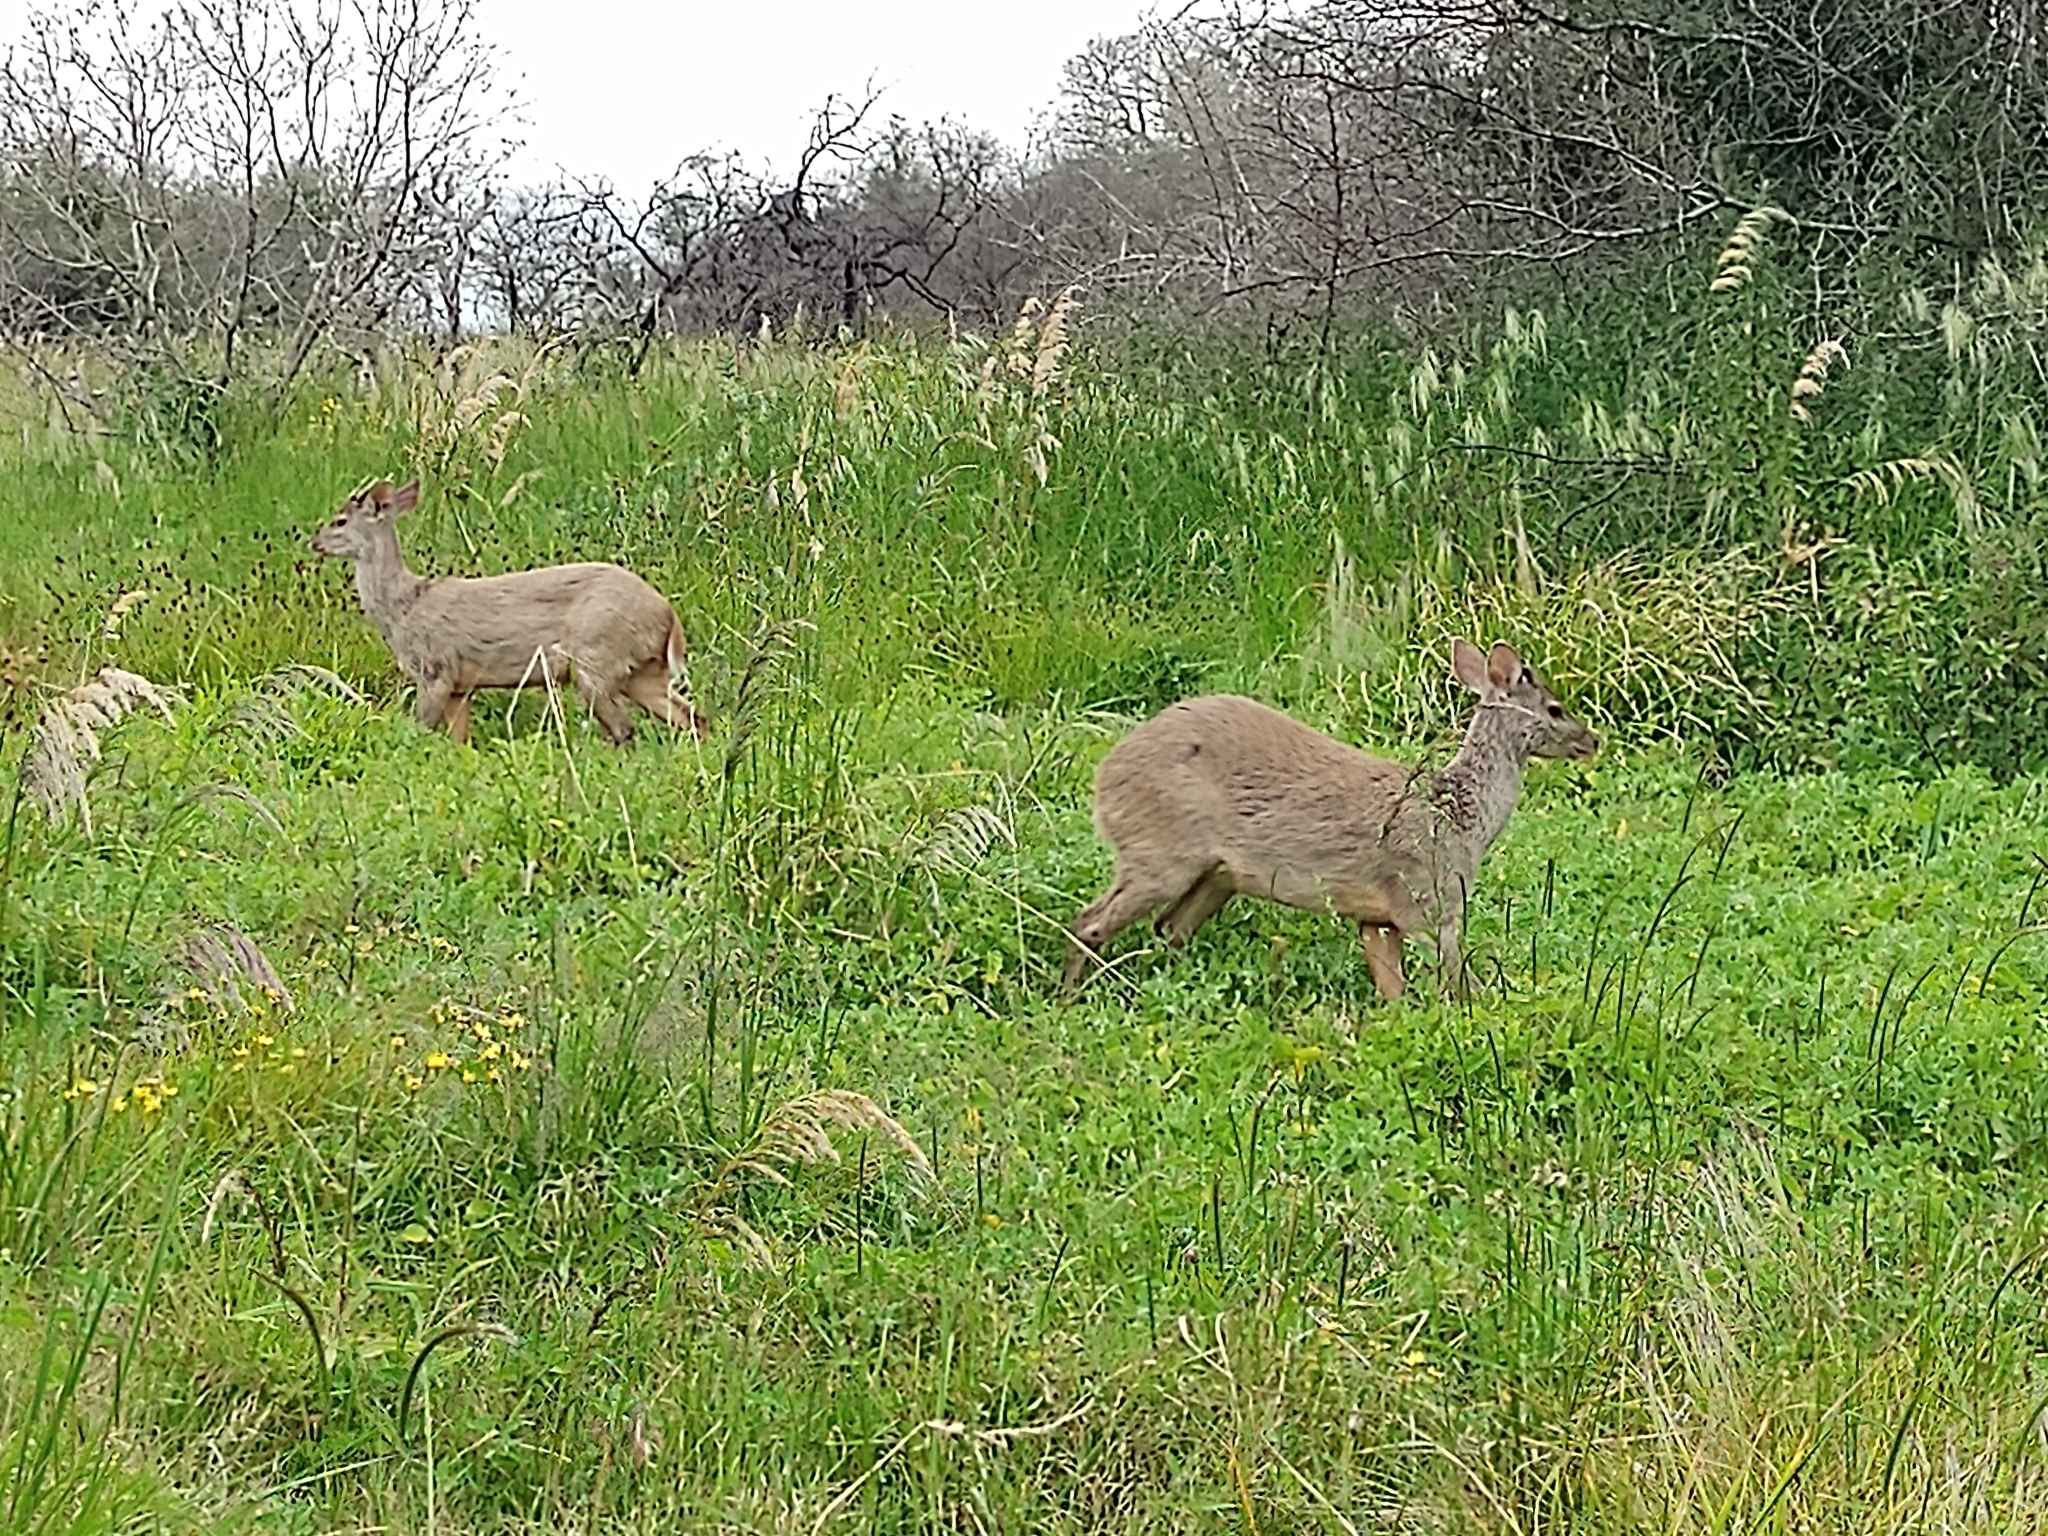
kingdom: Animalia
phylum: Chordata
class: Mammalia
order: Artiodactyla
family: Cervidae
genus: Mazama
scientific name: Mazama gouazoubira
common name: Gray brocket
